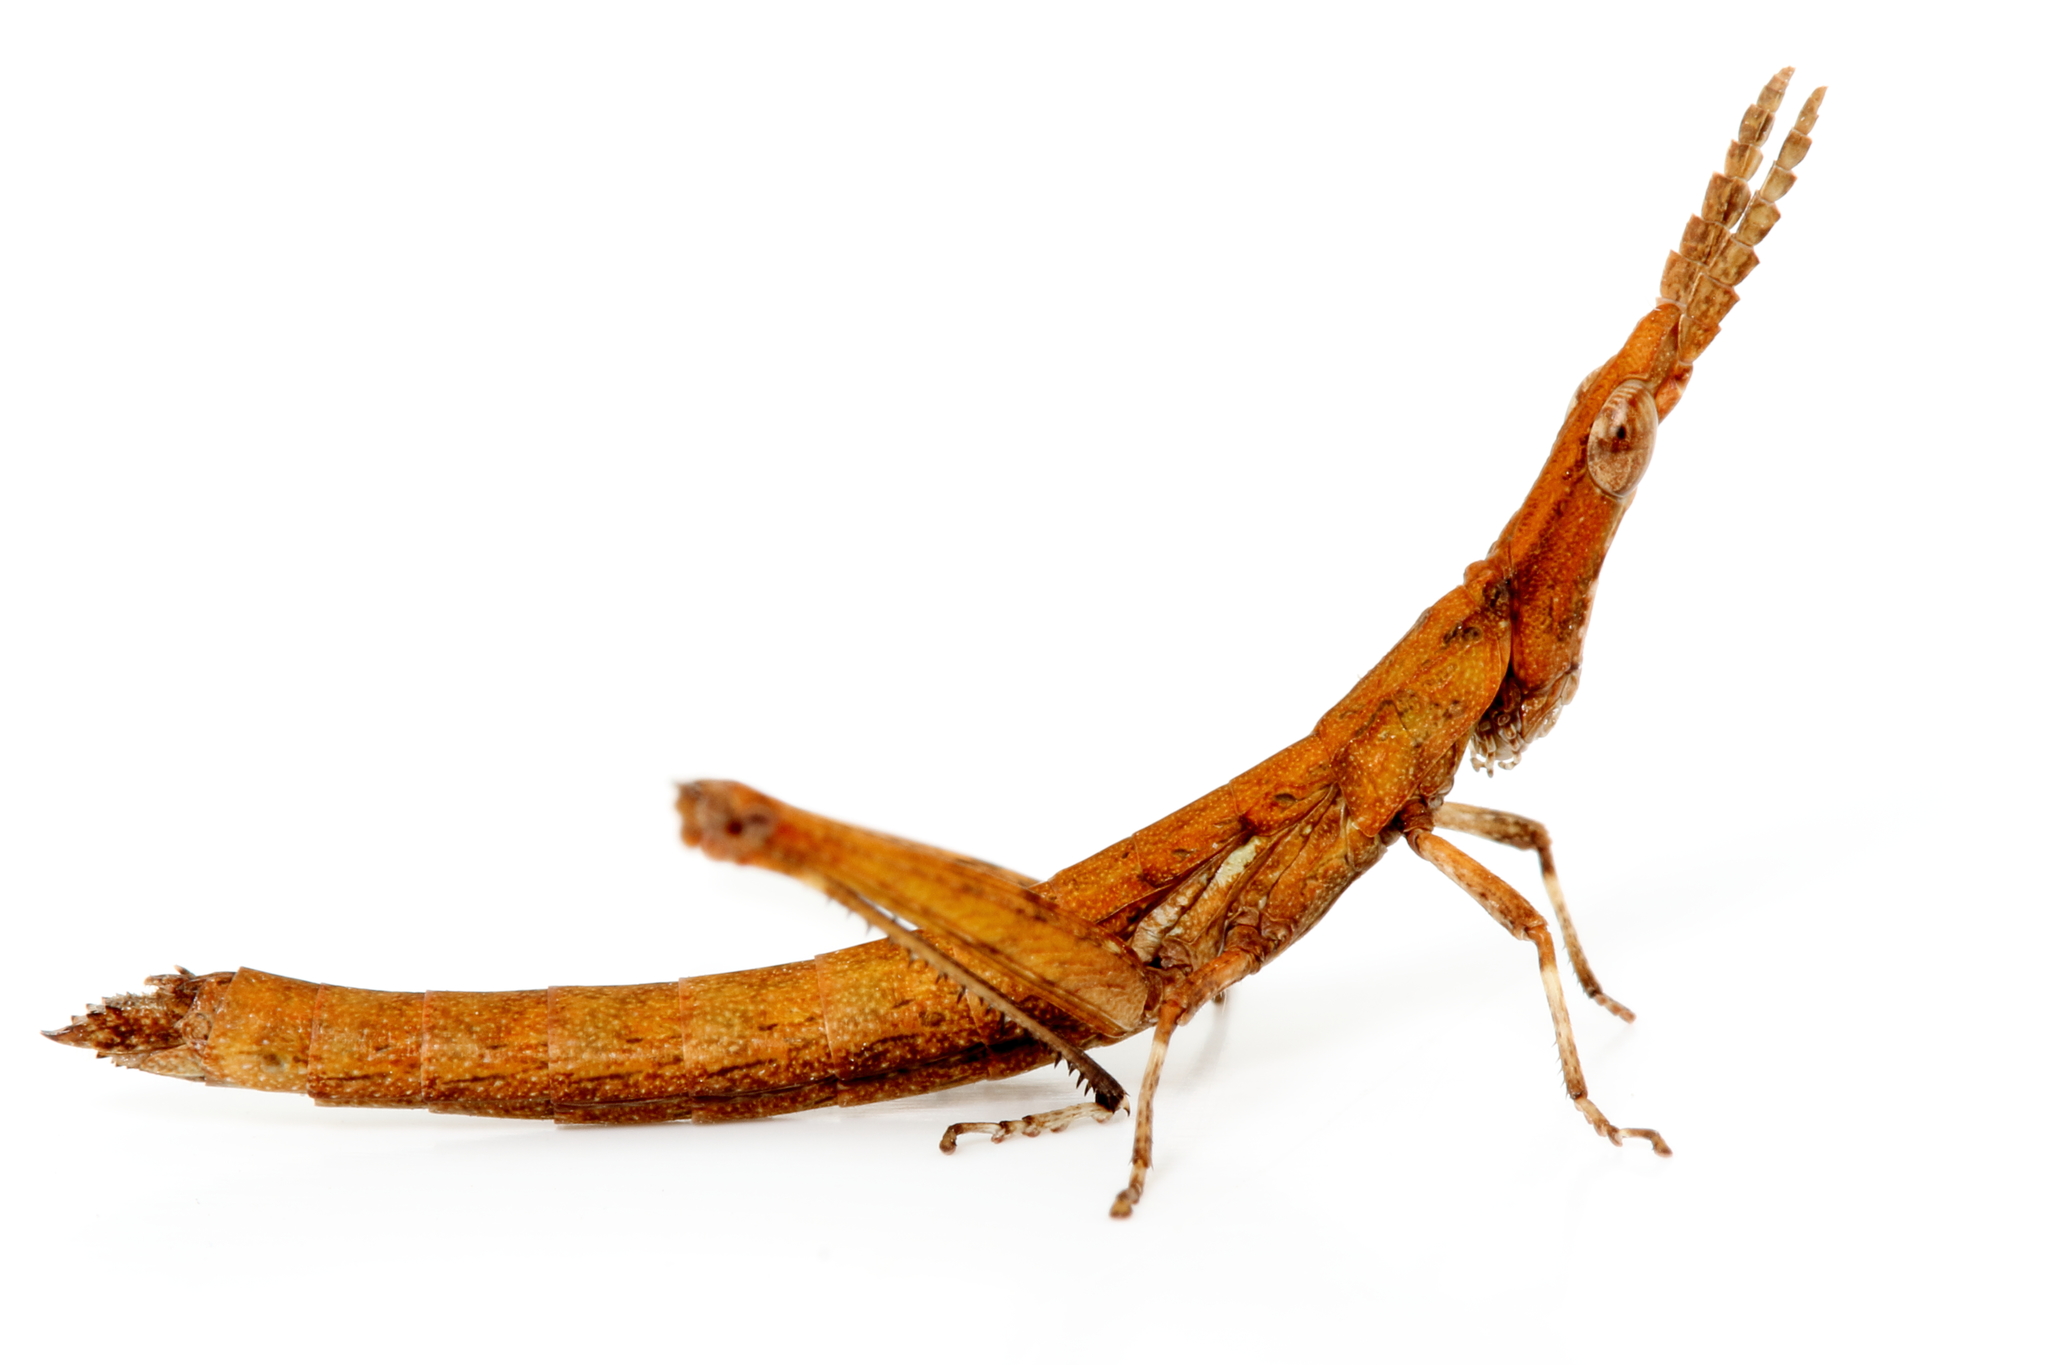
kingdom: Animalia
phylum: Arthropoda
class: Insecta
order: Orthoptera
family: Morabidae
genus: Vandiemenella
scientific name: Vandiemenella viatica
